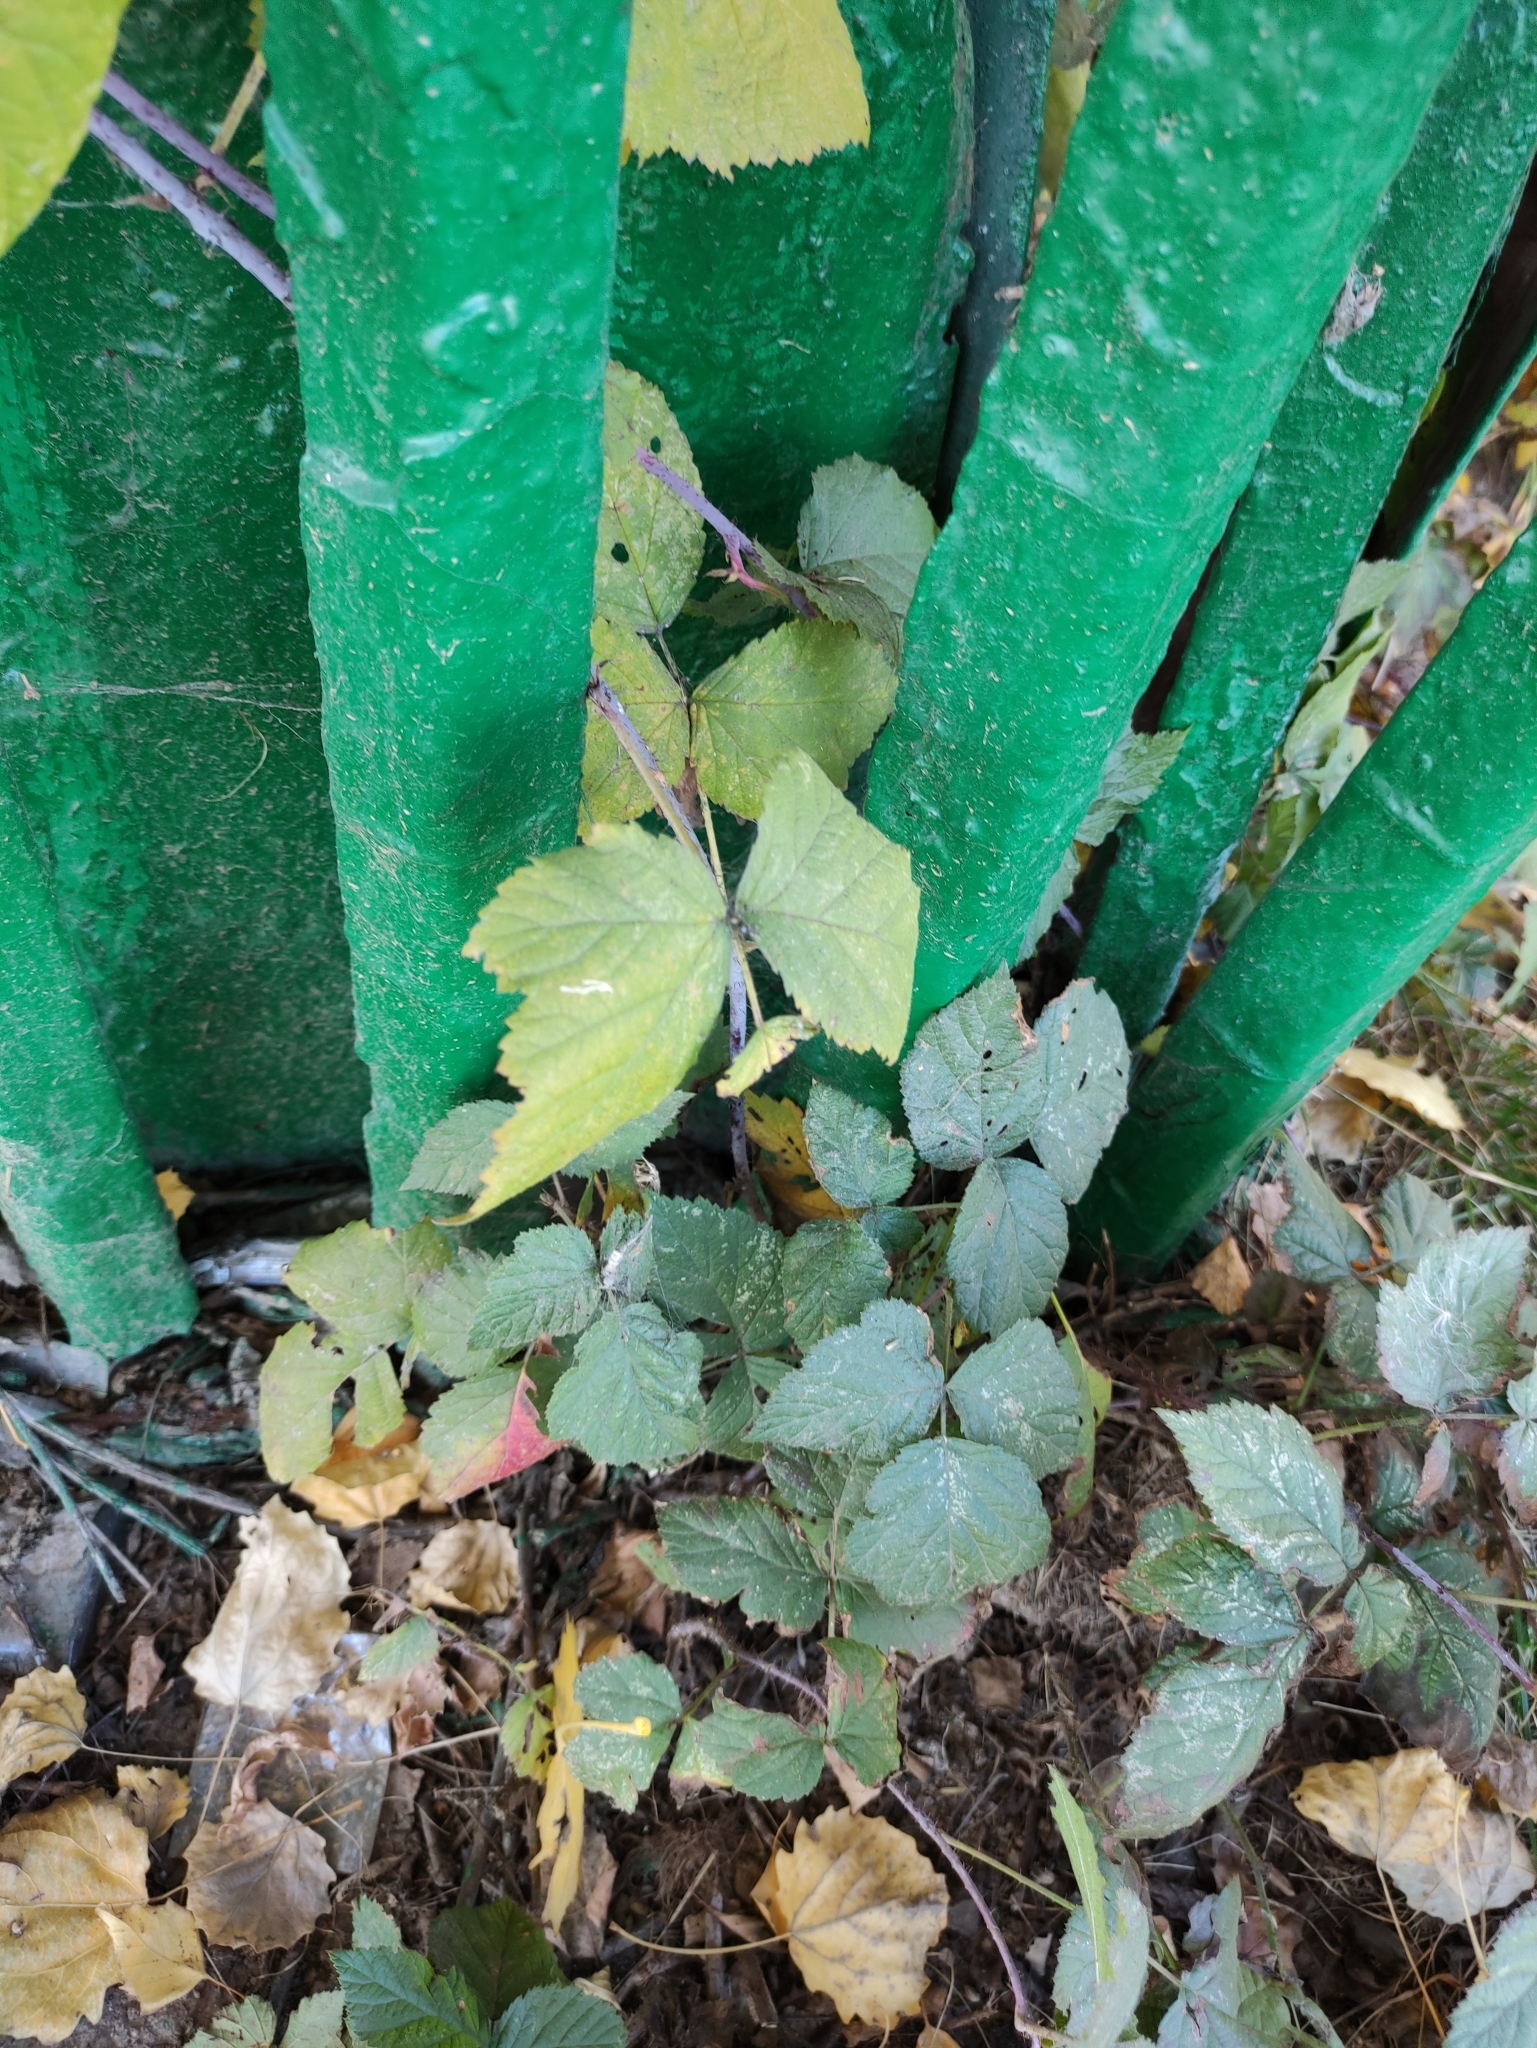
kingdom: Plantae
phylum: Tracheophyta
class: Magnoliopsida
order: Rosales
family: Rosaceae
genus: Rubus
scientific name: Rubus caesius
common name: Dewberry
